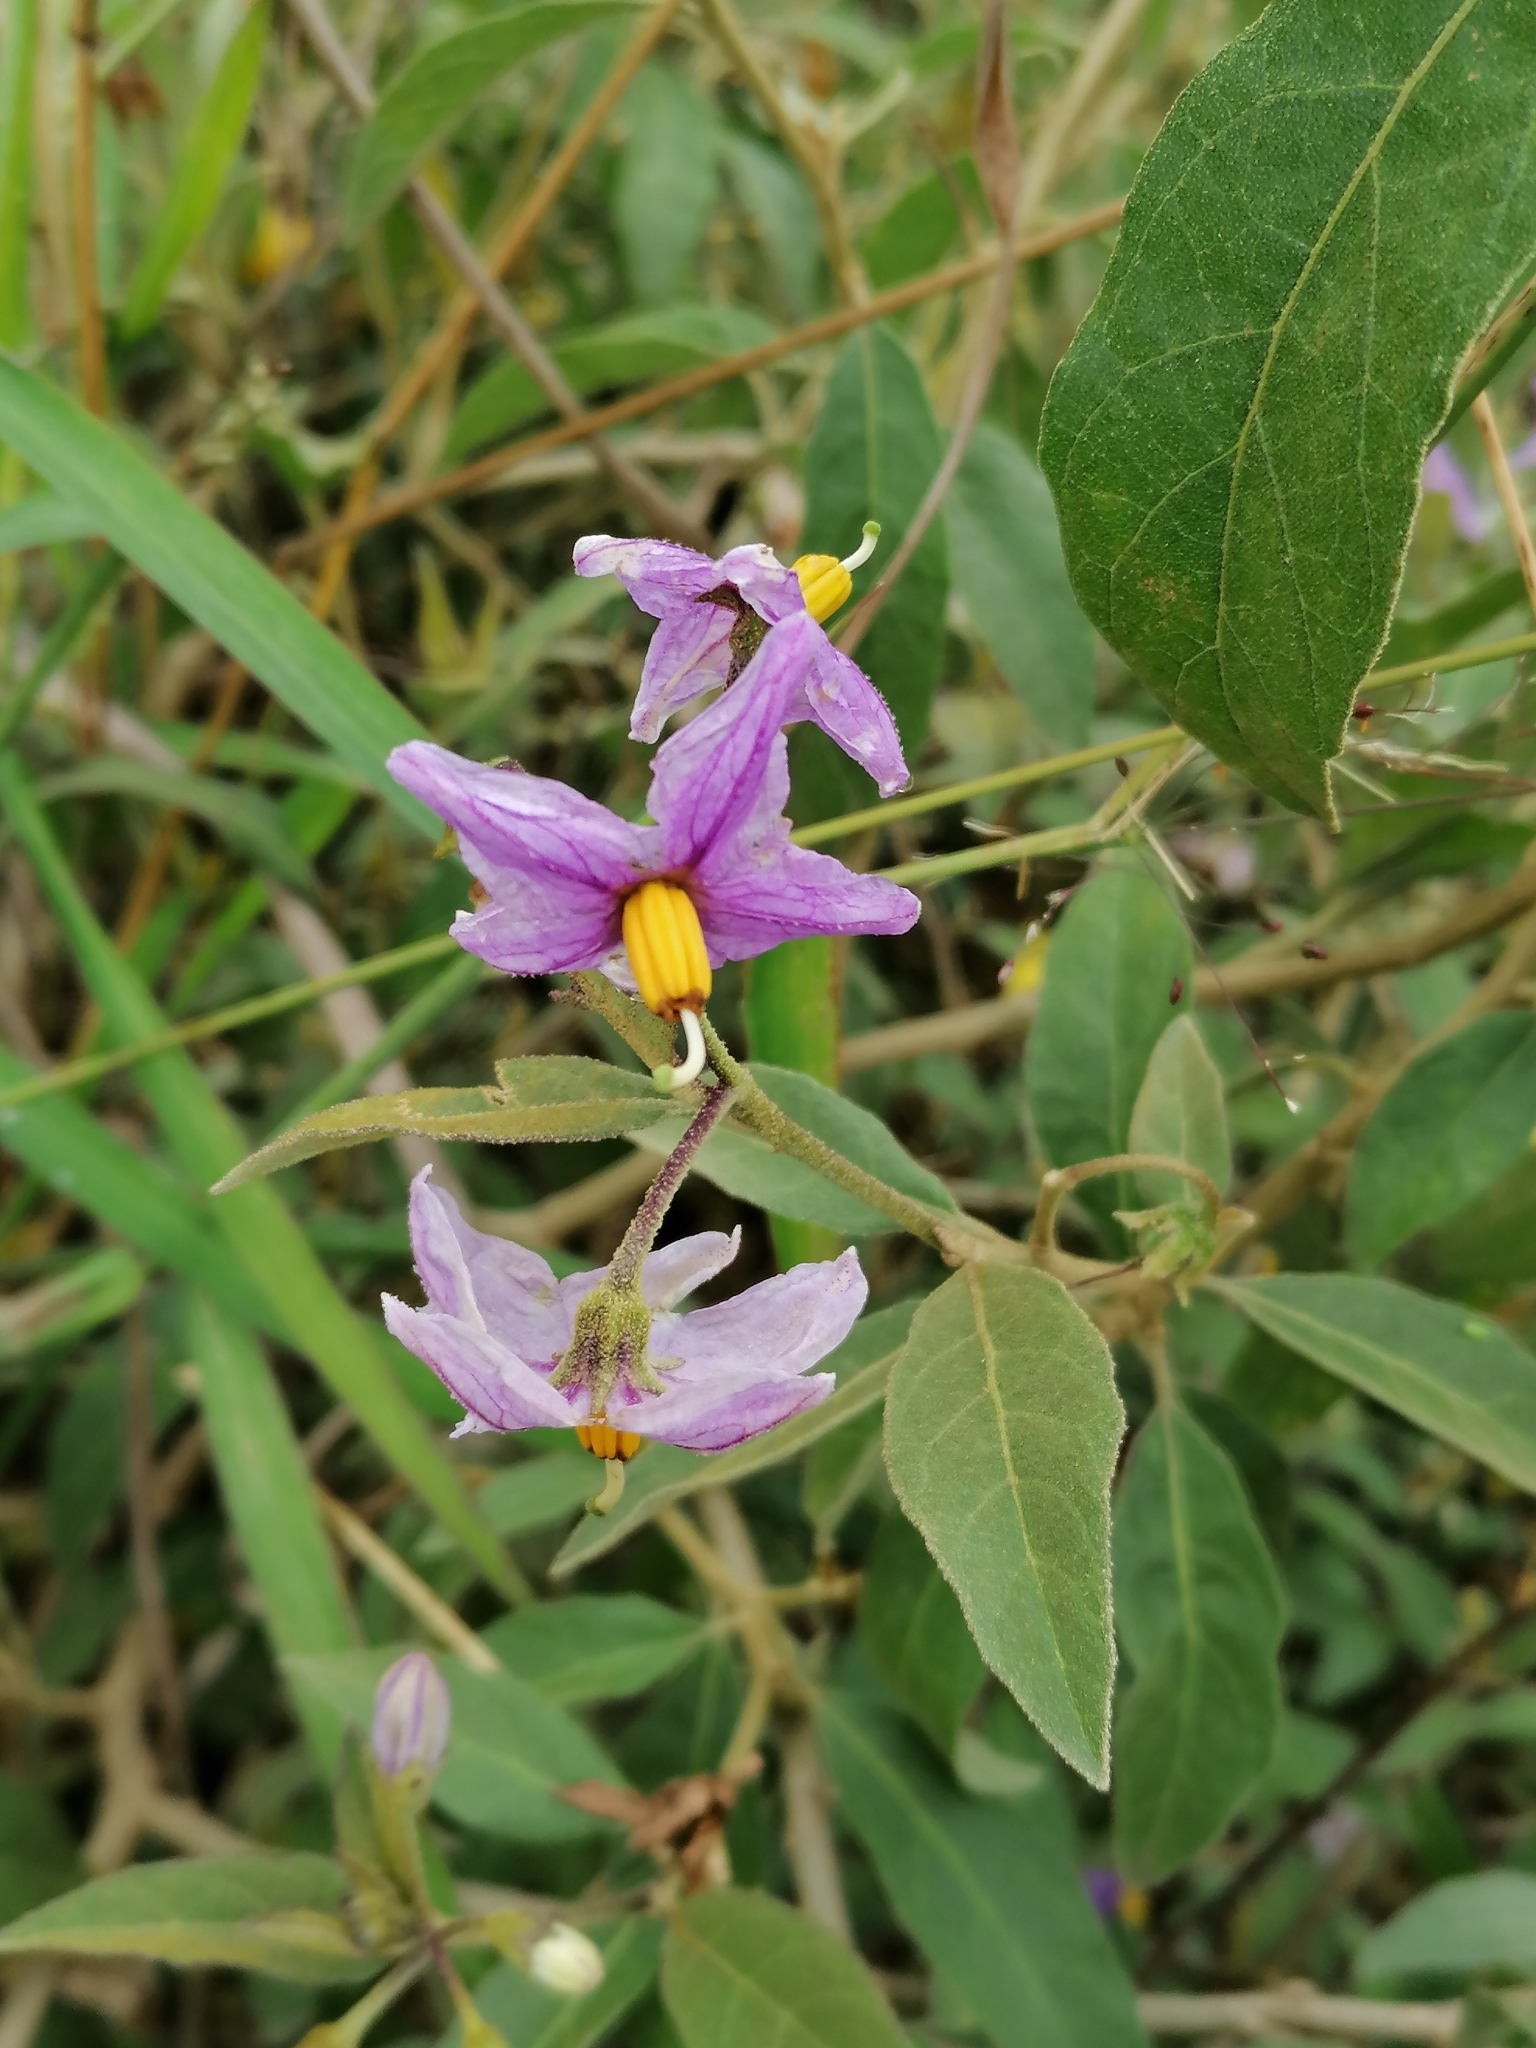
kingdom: Plantae
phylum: Tracheophyta
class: Magnoliopsida
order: Solanales
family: Solanaceae
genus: Solanum
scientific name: Solanum campylacanthum
